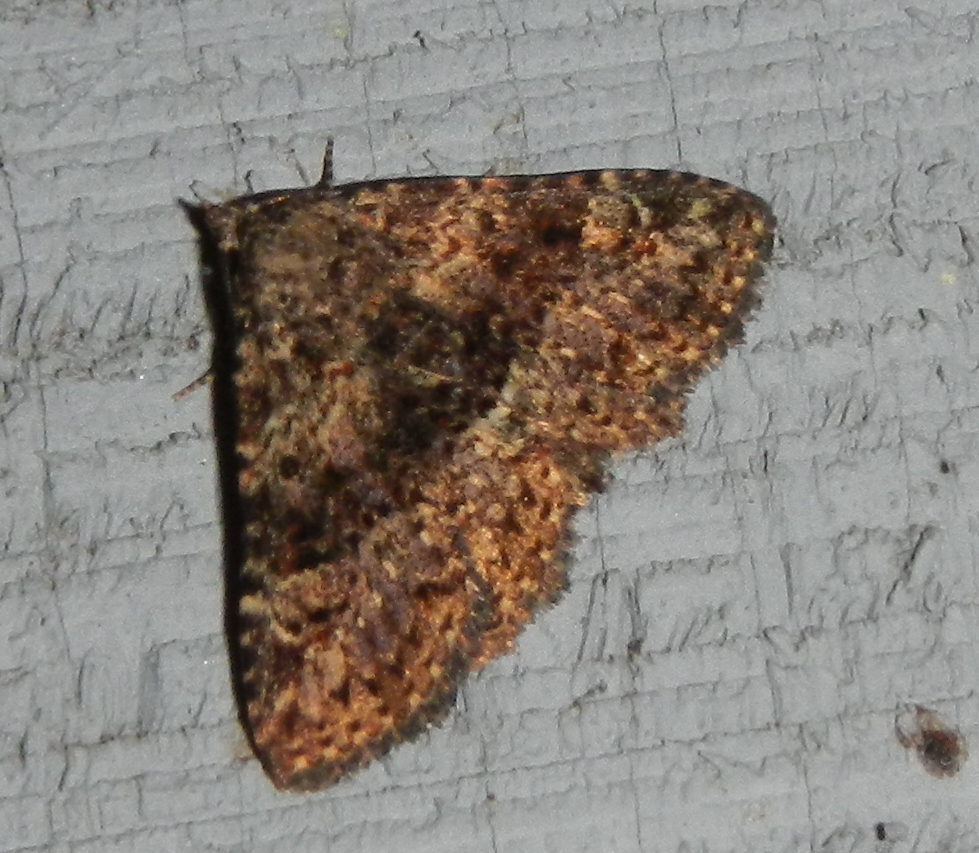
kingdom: Animalia
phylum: Arthropoda
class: Insecta
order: Lepidoptera
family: Erebidae
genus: Metalectra
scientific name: Metalectra discalis
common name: Common fungus moth
